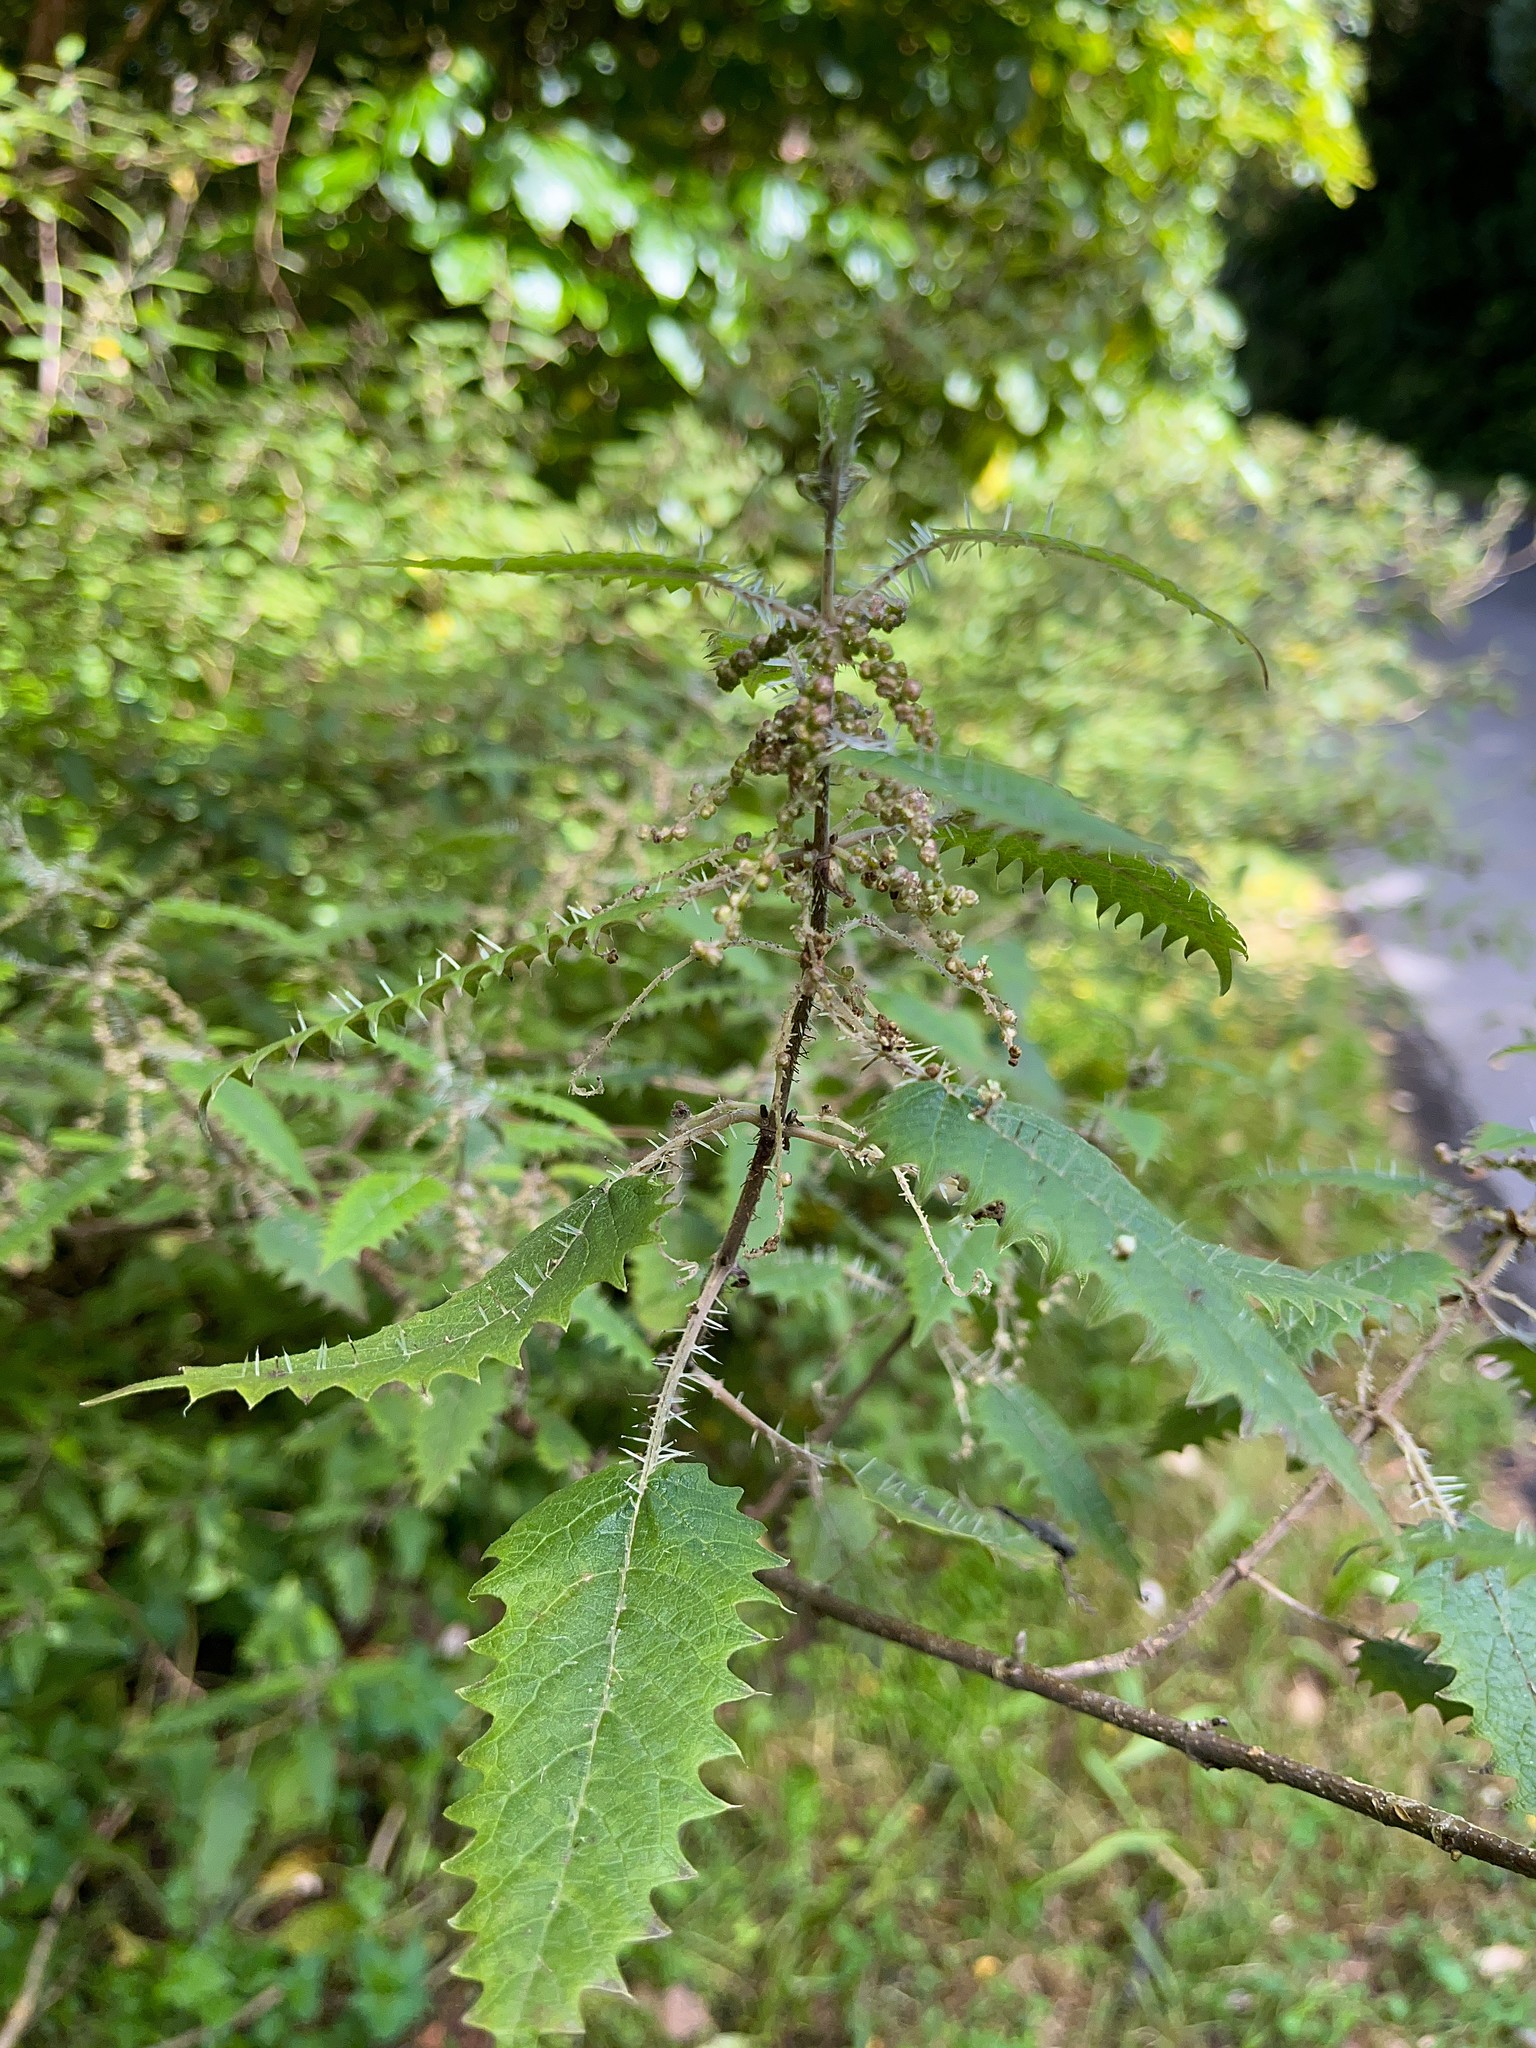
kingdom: Plantae
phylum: Tracheophyta
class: Magnoliopsida
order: Rosales
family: Urticaceae
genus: Urtica
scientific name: Urtica ferox
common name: Tree nettle
